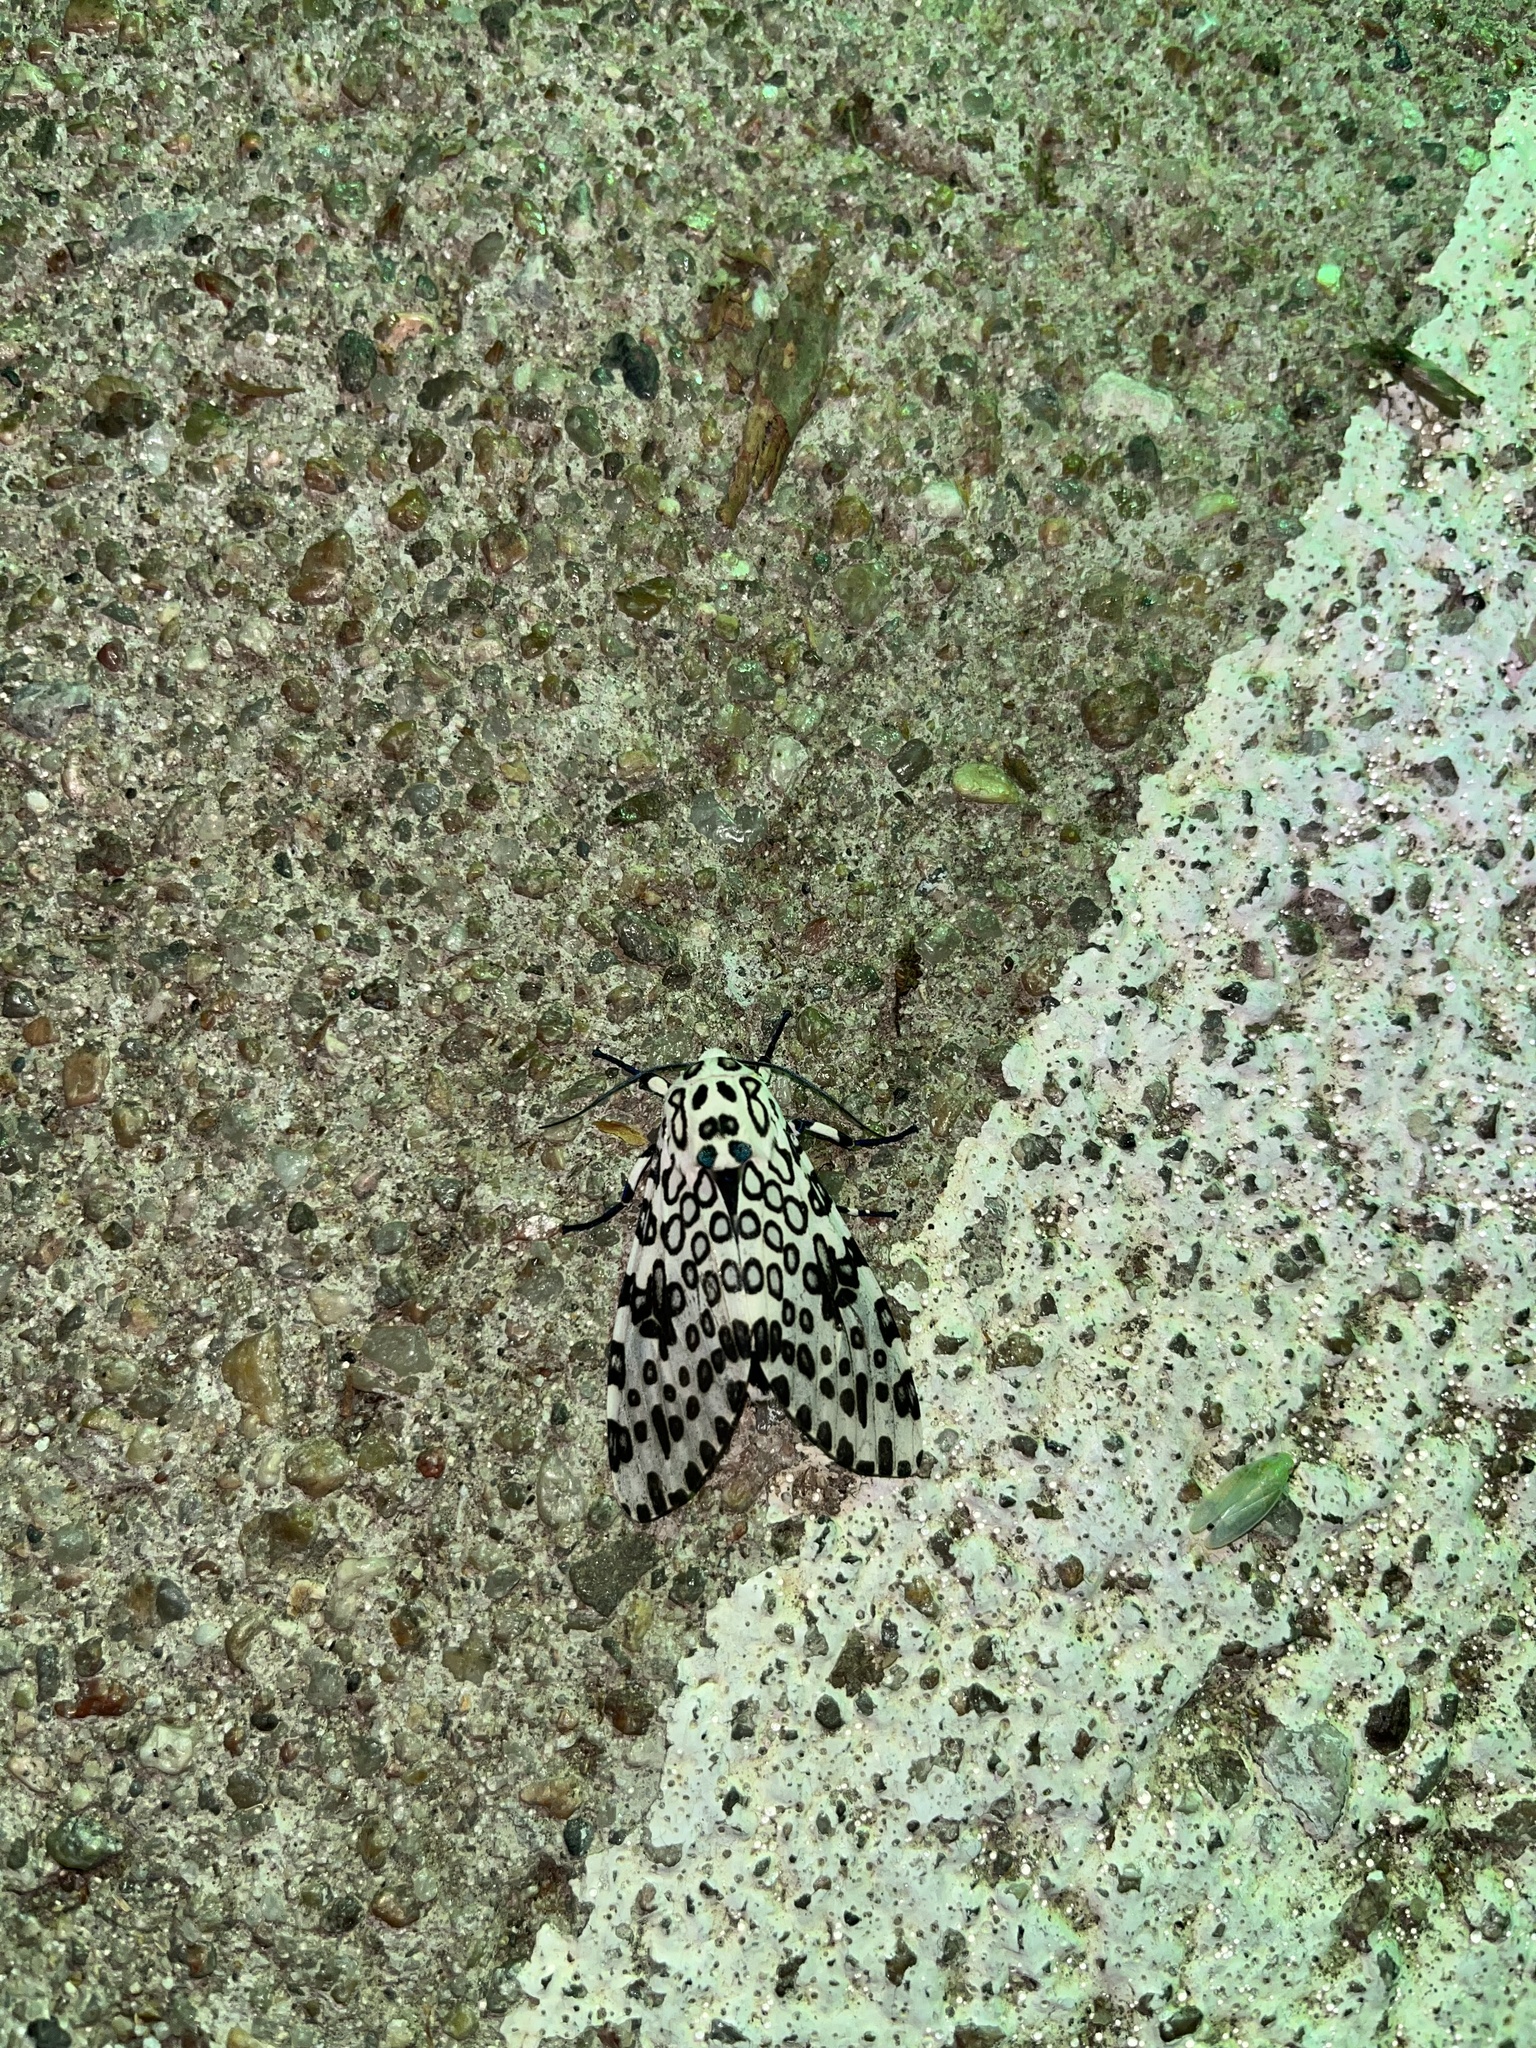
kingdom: Animalia
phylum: Arthropoda
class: Insecta
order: Lepidoptera
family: Erebidae
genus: Hypercompe
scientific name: Hypercompe scribonia
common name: Giant leopard moth
